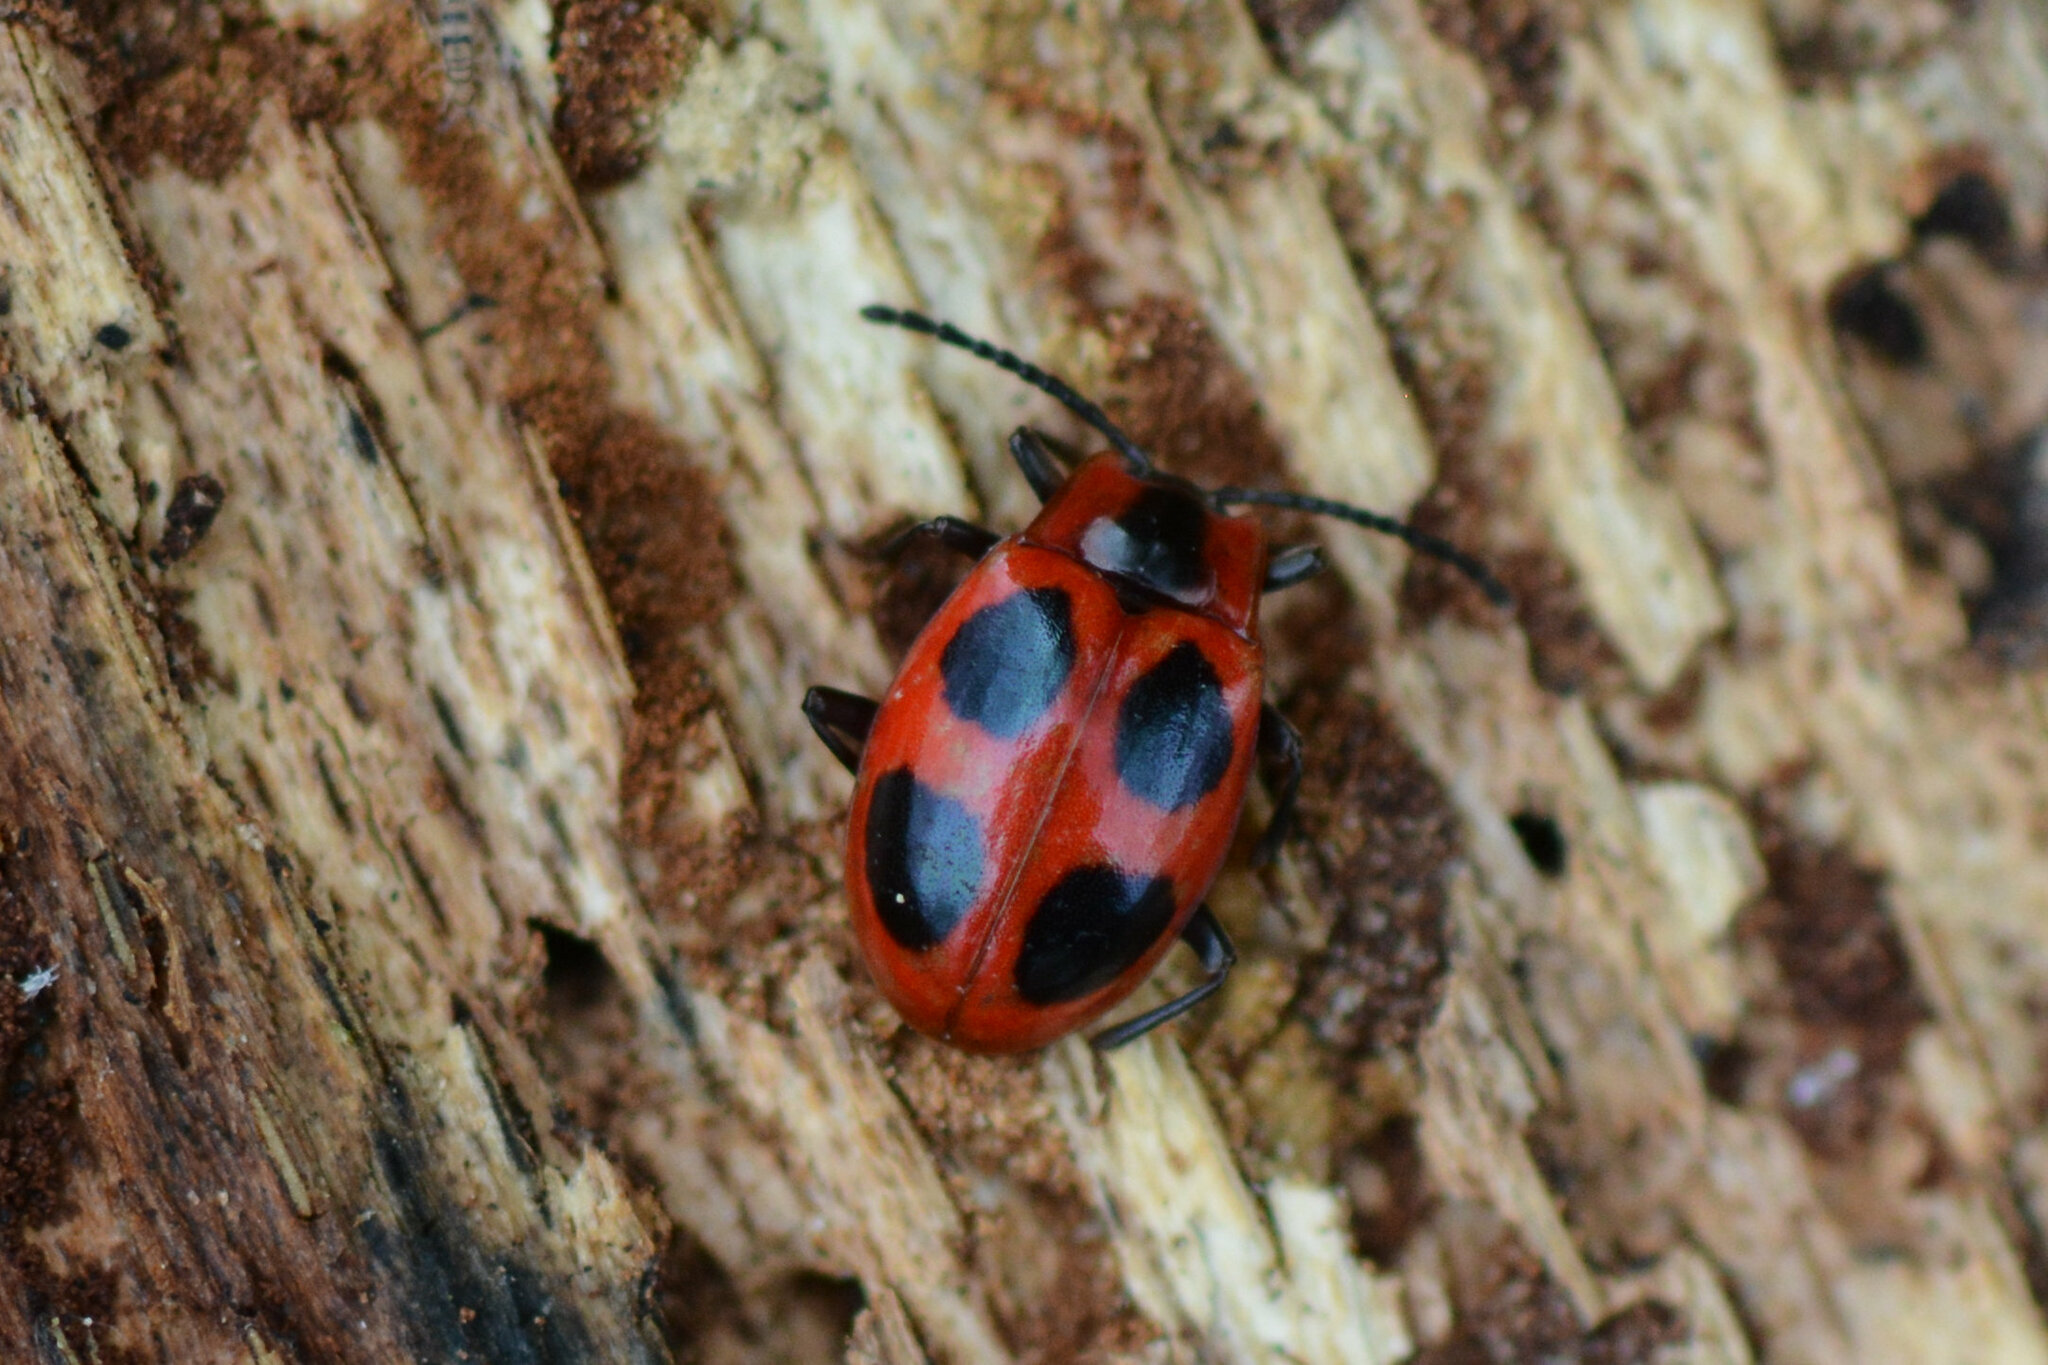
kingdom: Animalia
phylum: Arthropoda
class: Insecta
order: Coleoptera
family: Endomychidae
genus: Endomychus
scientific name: Endomychus coccineus
